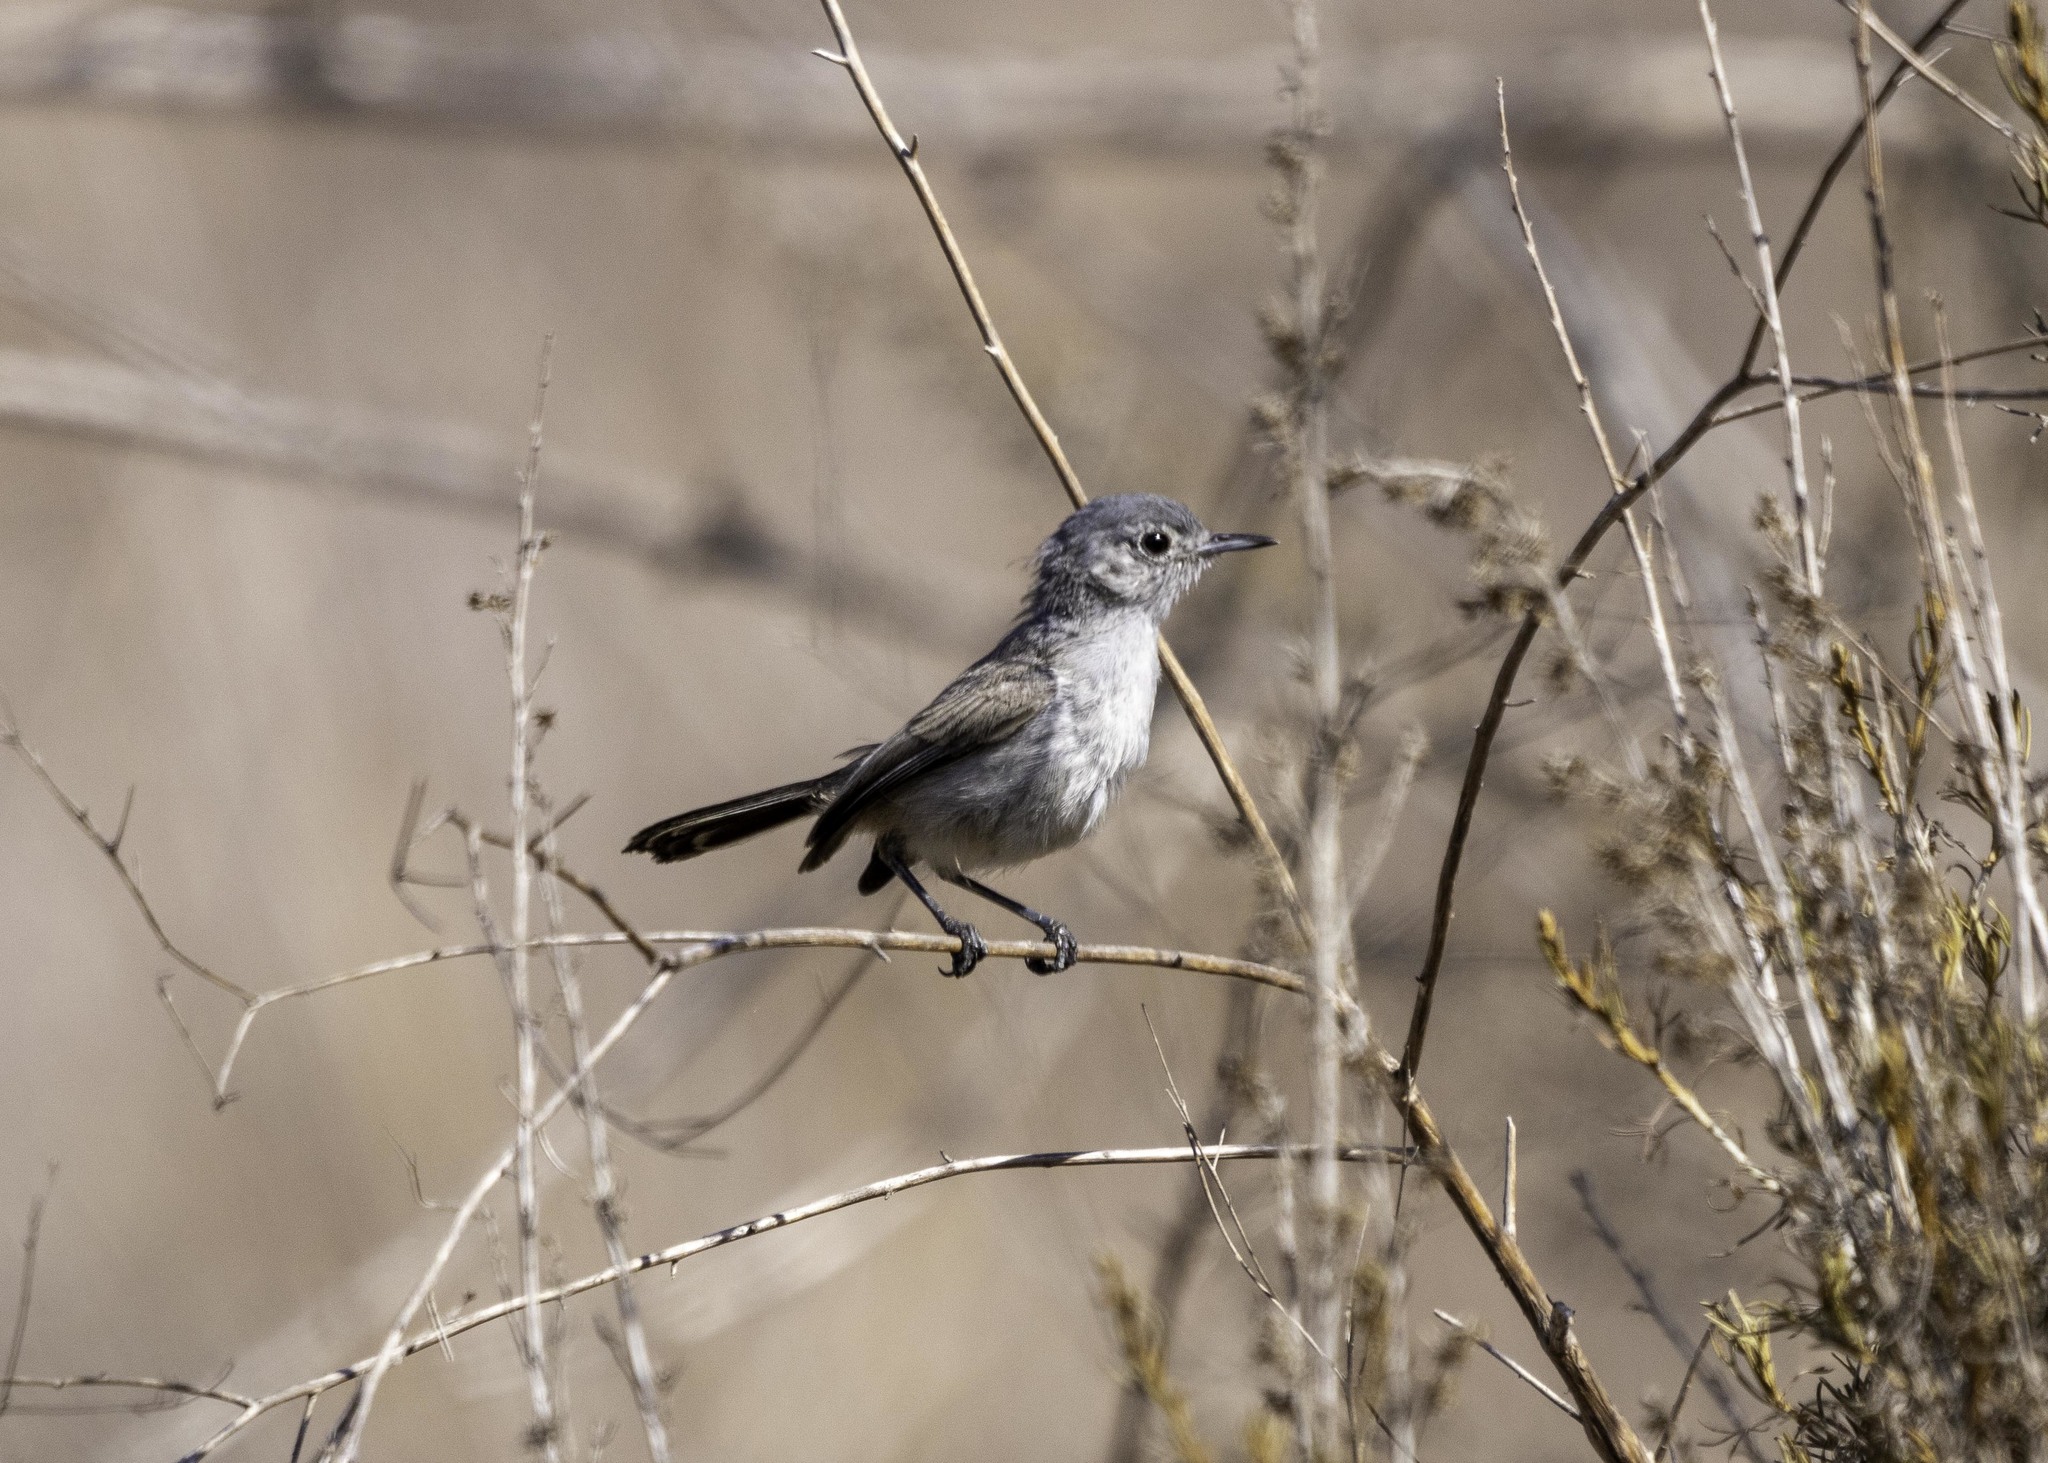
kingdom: Animalia
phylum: Chordata
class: Aves
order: Passeriformes
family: Polioptilidae
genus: Polioptila
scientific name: Polioptila californica
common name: California gnatcatcher
